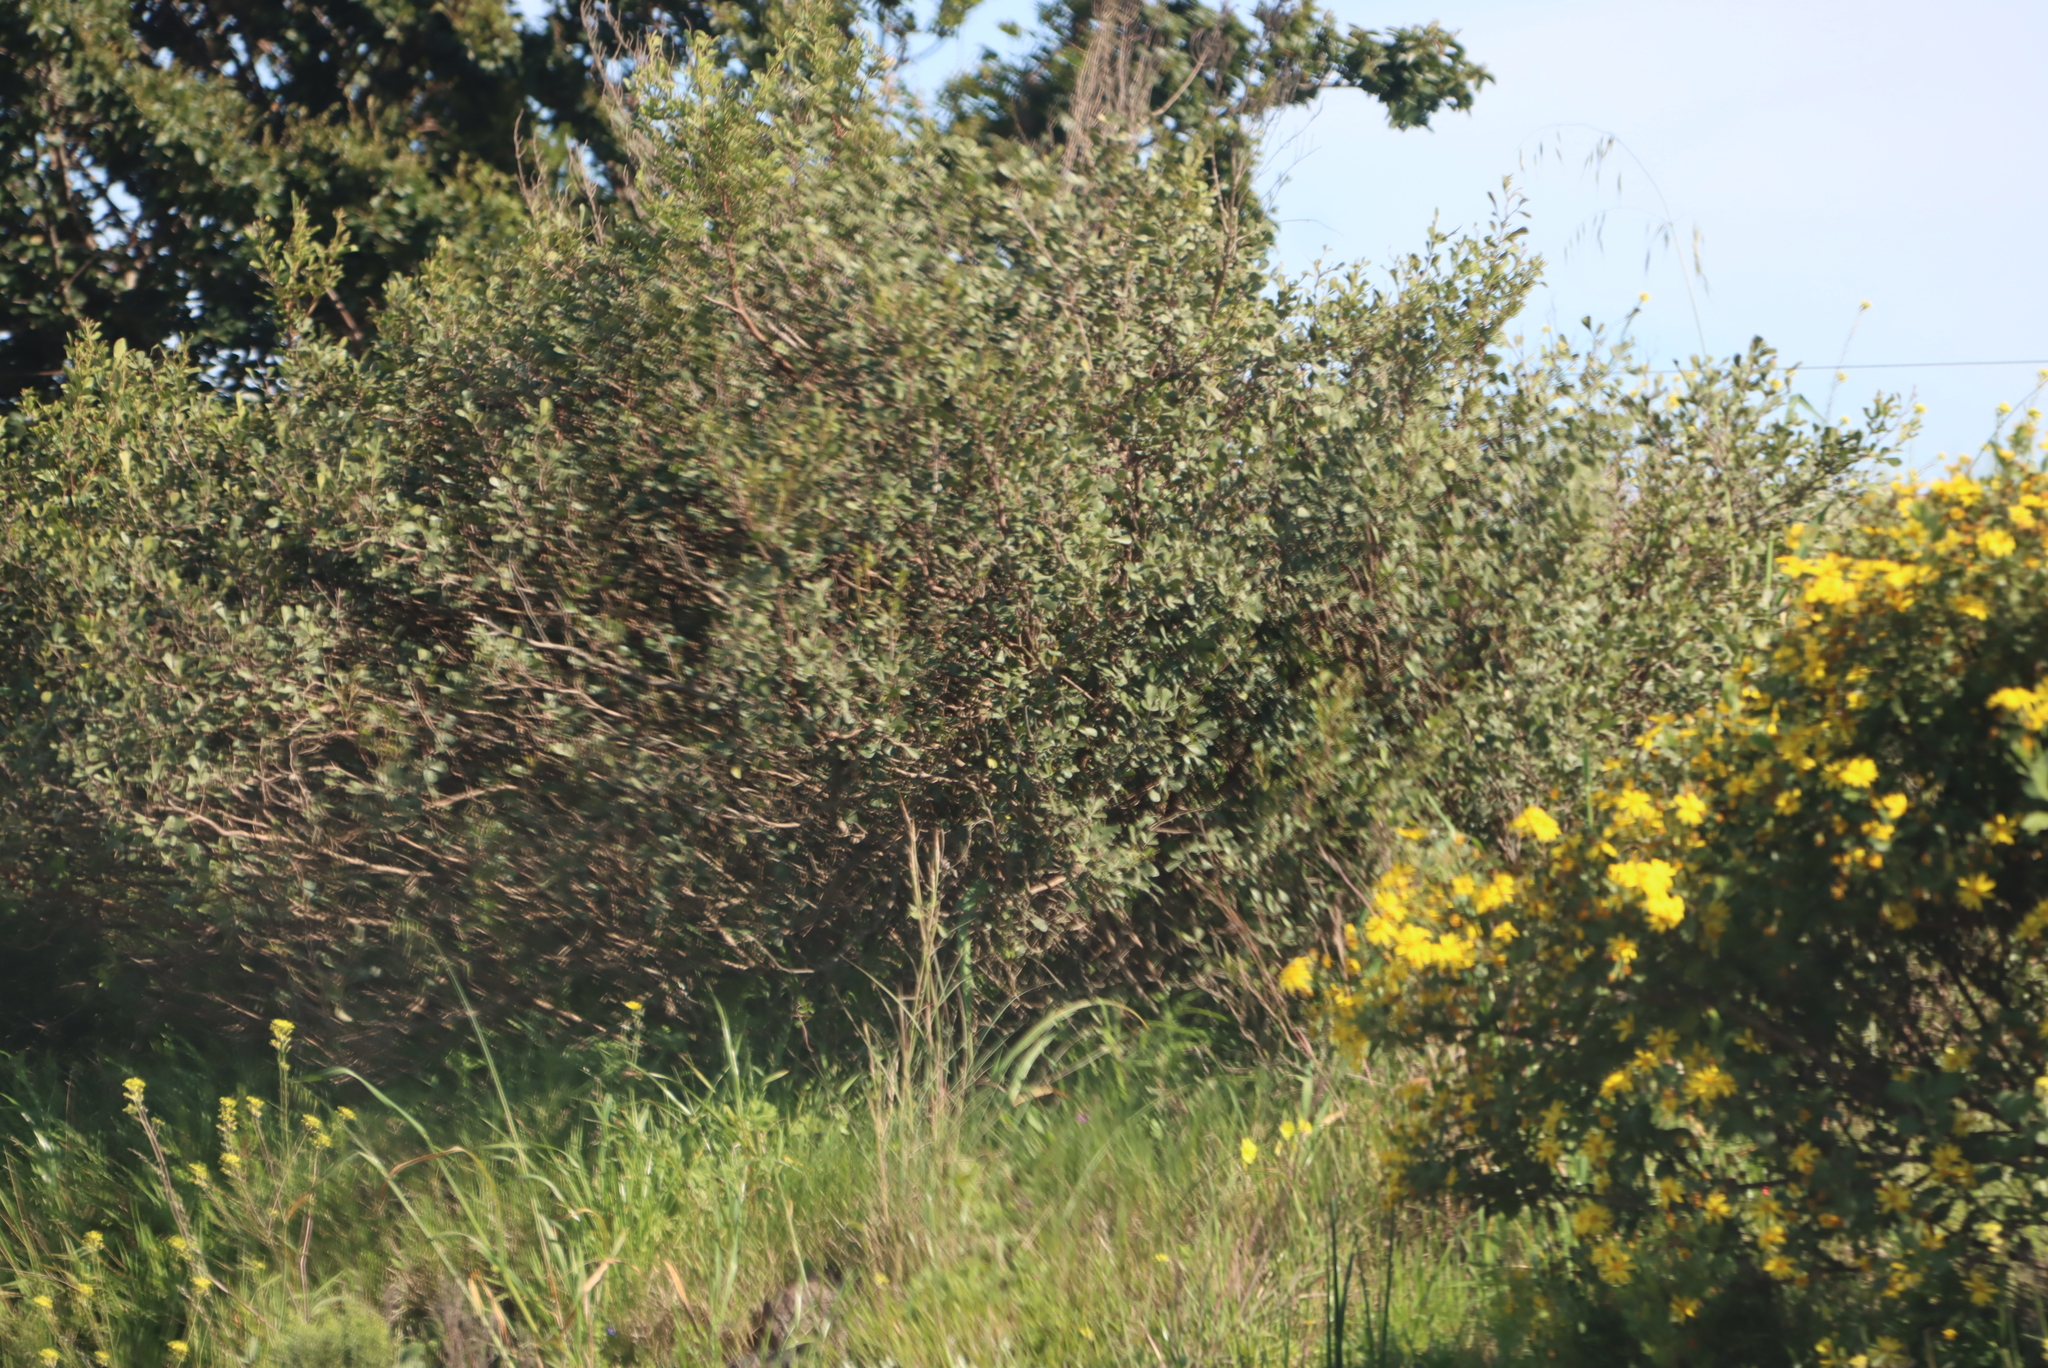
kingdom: Plantae
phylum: Tracheophyta
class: Magnoliopsida
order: Asterales
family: Asteraceae
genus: Osteospermum
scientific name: Osteospermum moniliferum
